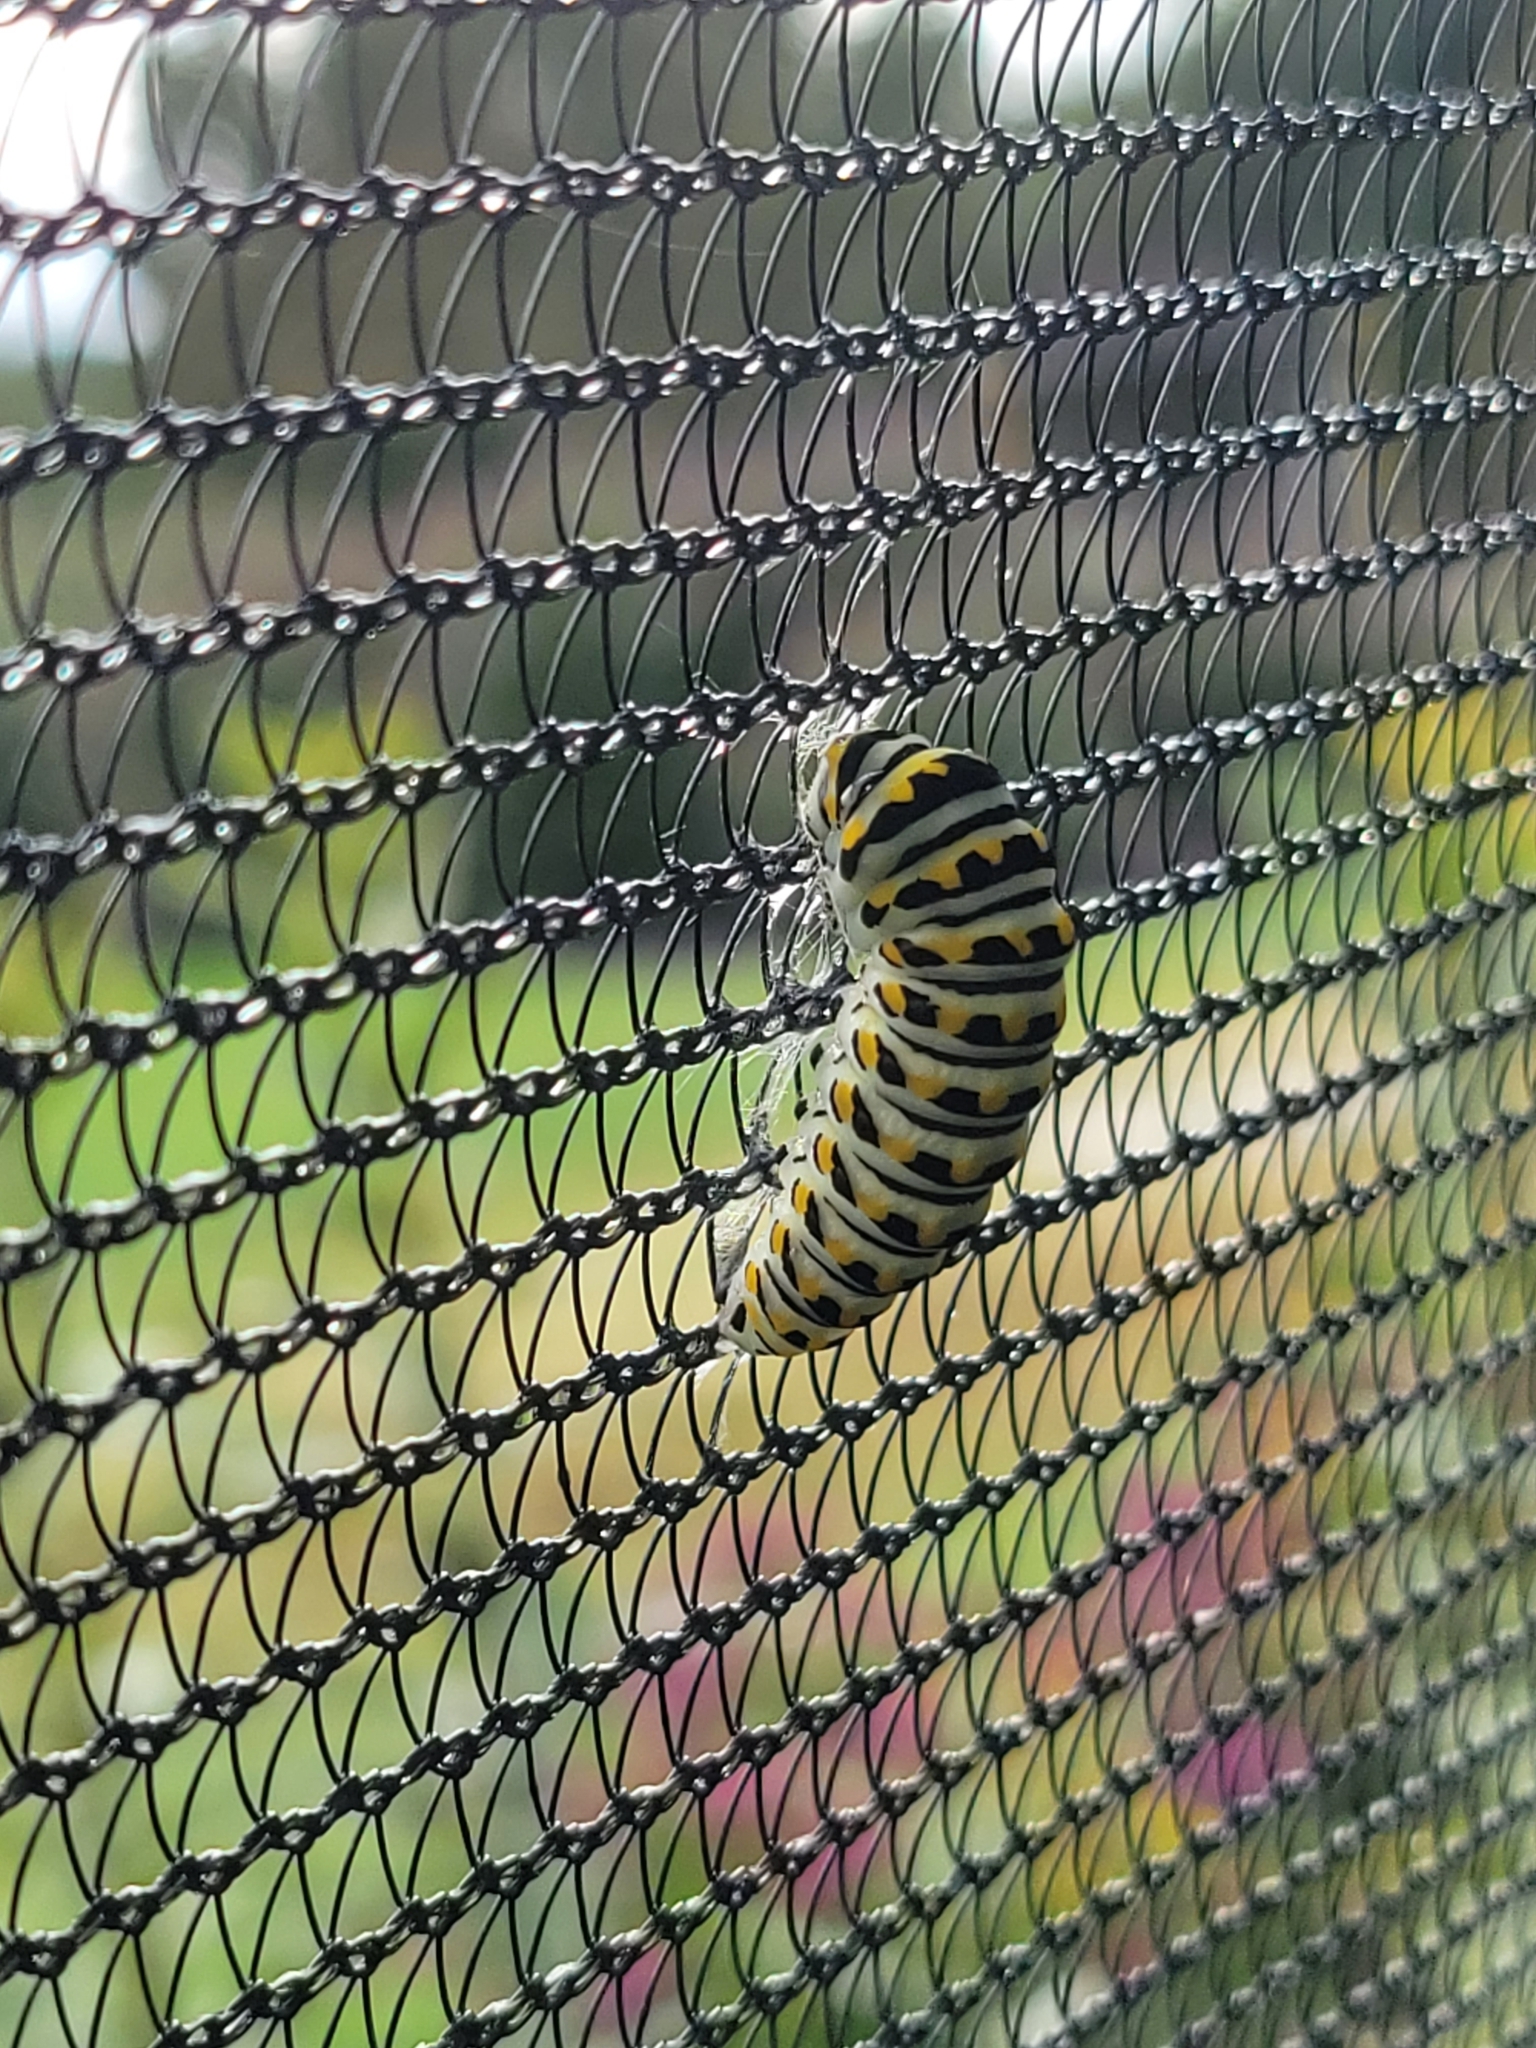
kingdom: Animalia
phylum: Arthropoda
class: Insecta
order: Lepidoptera
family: Papilionidae
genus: Papilio
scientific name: Papilio polyxenes
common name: Black swallowtail
